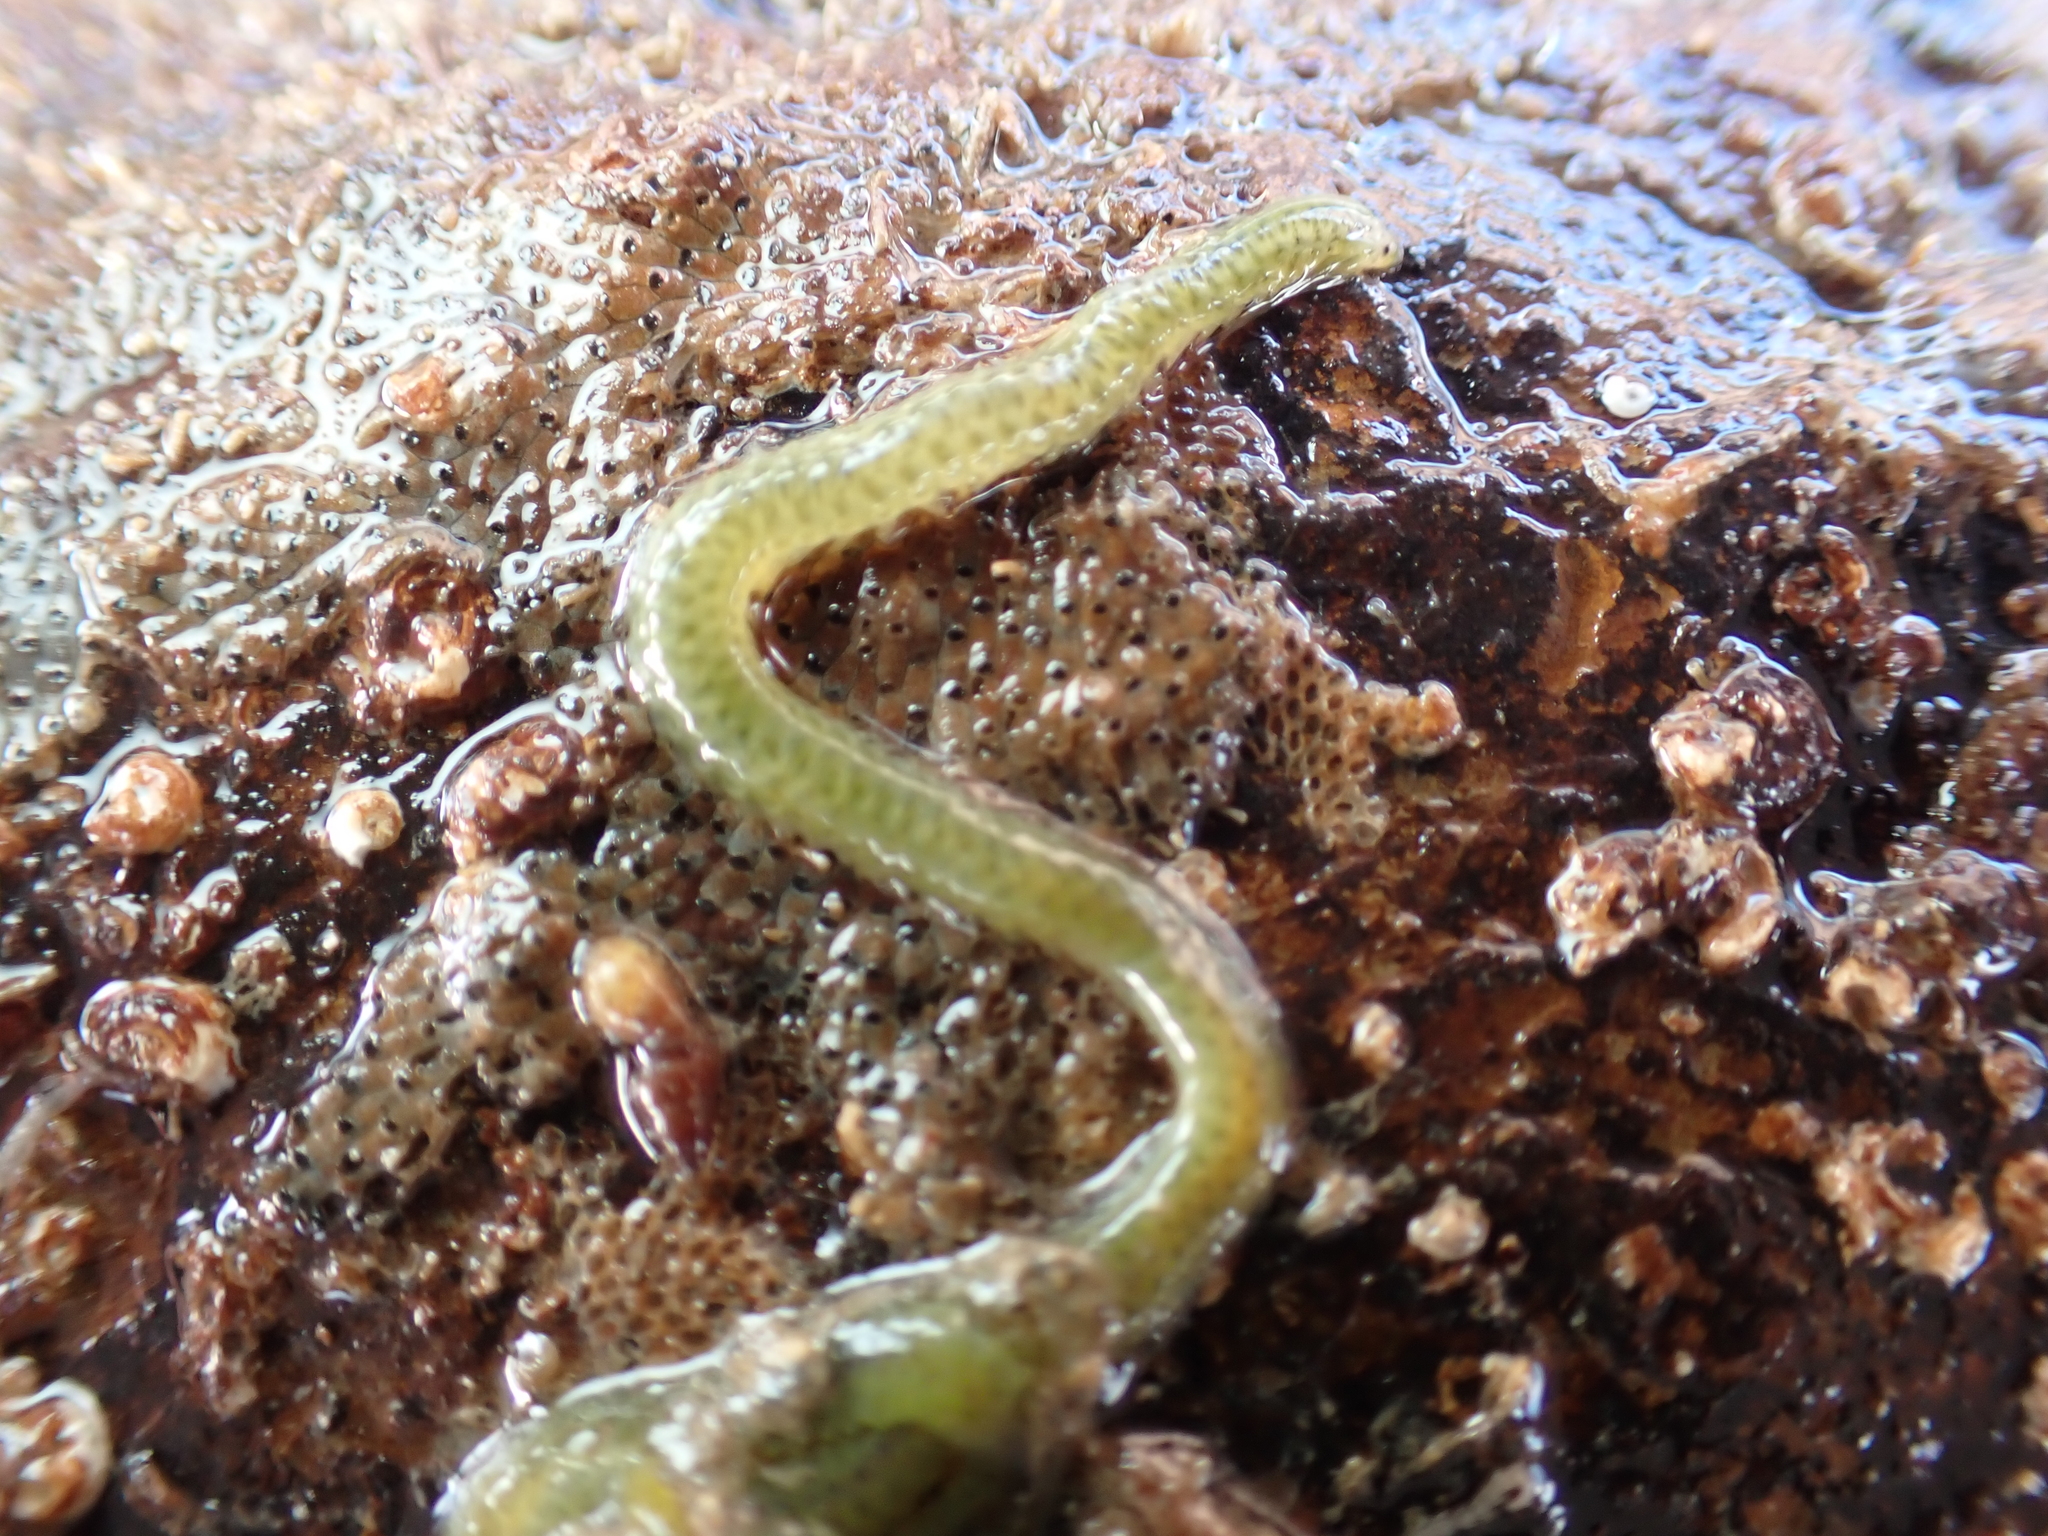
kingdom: Animalia
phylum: Annelida
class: Polychaeta
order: Phyllodocida
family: Phyllodocidae
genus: Eulalia
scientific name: Eulalia clavigera
